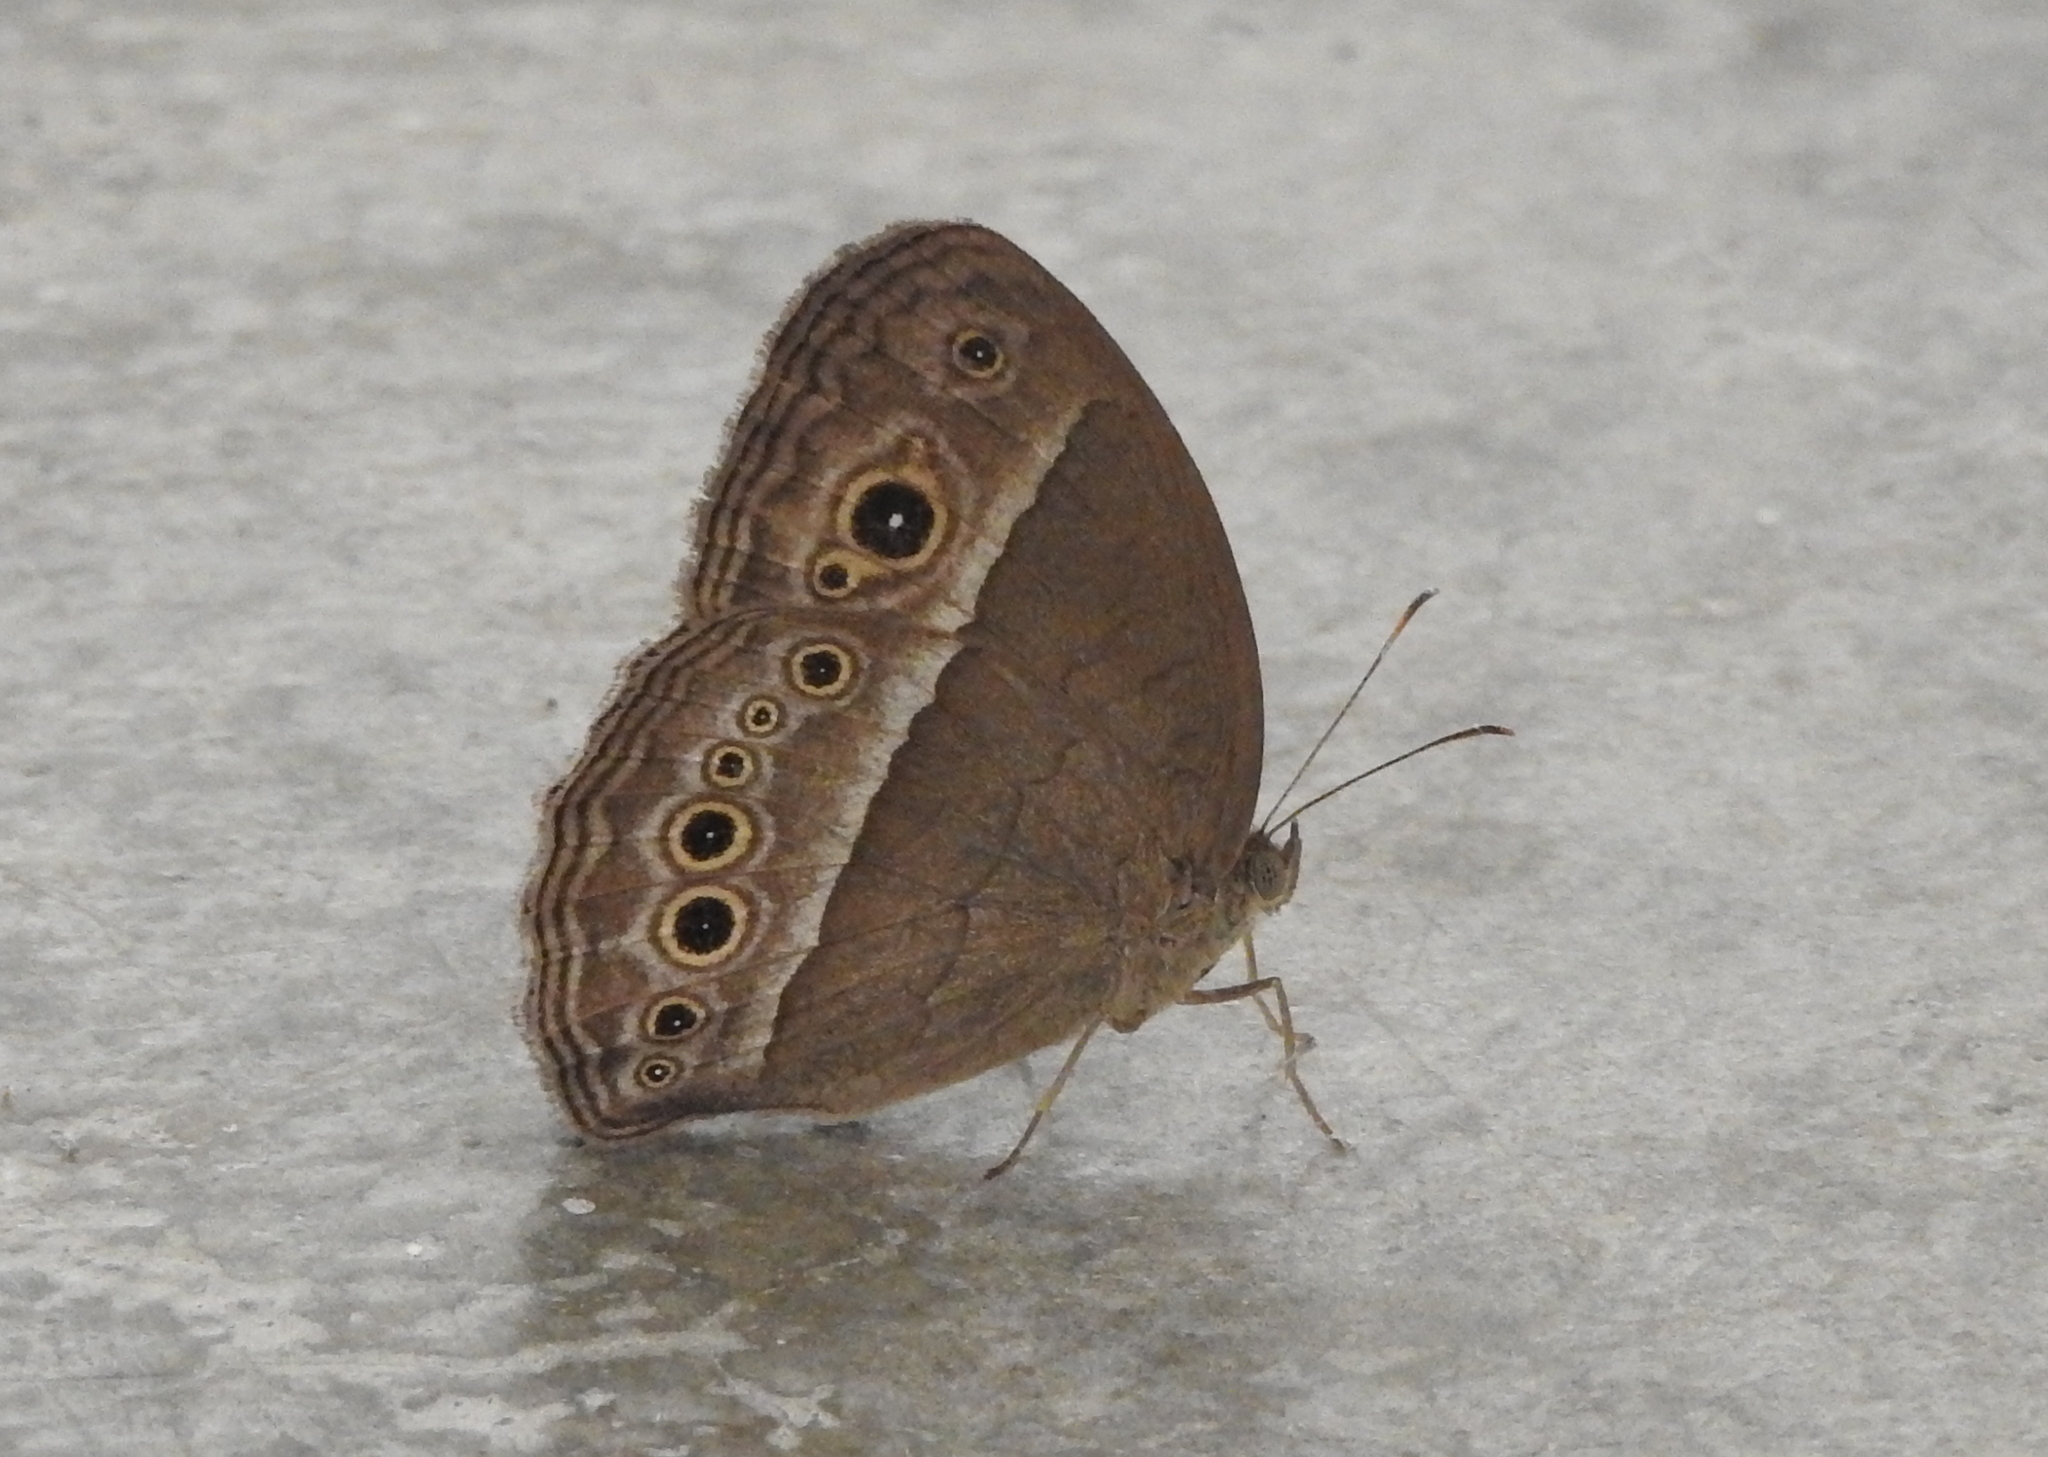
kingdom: Animalia
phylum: Arthropoda
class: Insecta
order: Lepidoptera
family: Nymphalidae
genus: Mycalesis
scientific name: Mycalesis mineus
